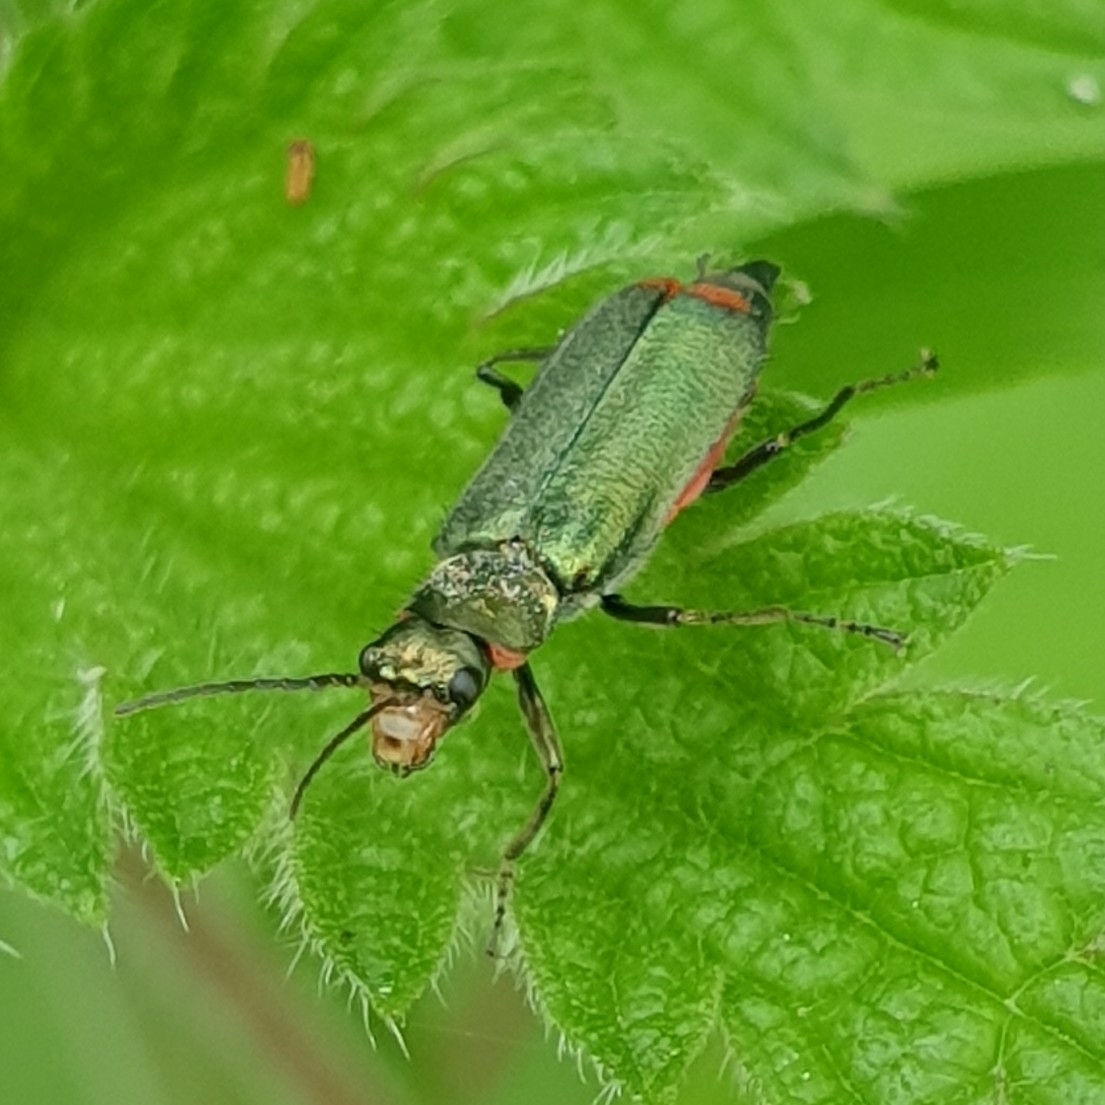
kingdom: Animalia
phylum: Arthropoda
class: Insecta
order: Coleoptera
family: Melyridae
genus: Malachius
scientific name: Malachius bipustulatus
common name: Malachite beetle
